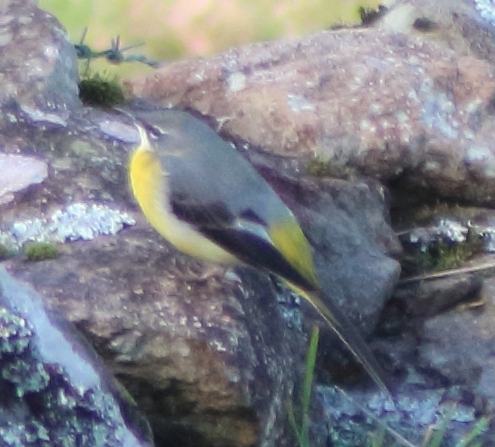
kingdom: Animalia
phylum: Chordata
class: Aves
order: Passeriformes
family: Motacillidae
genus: Motacilla
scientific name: Motacilla cinerea
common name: Grey wagtail
